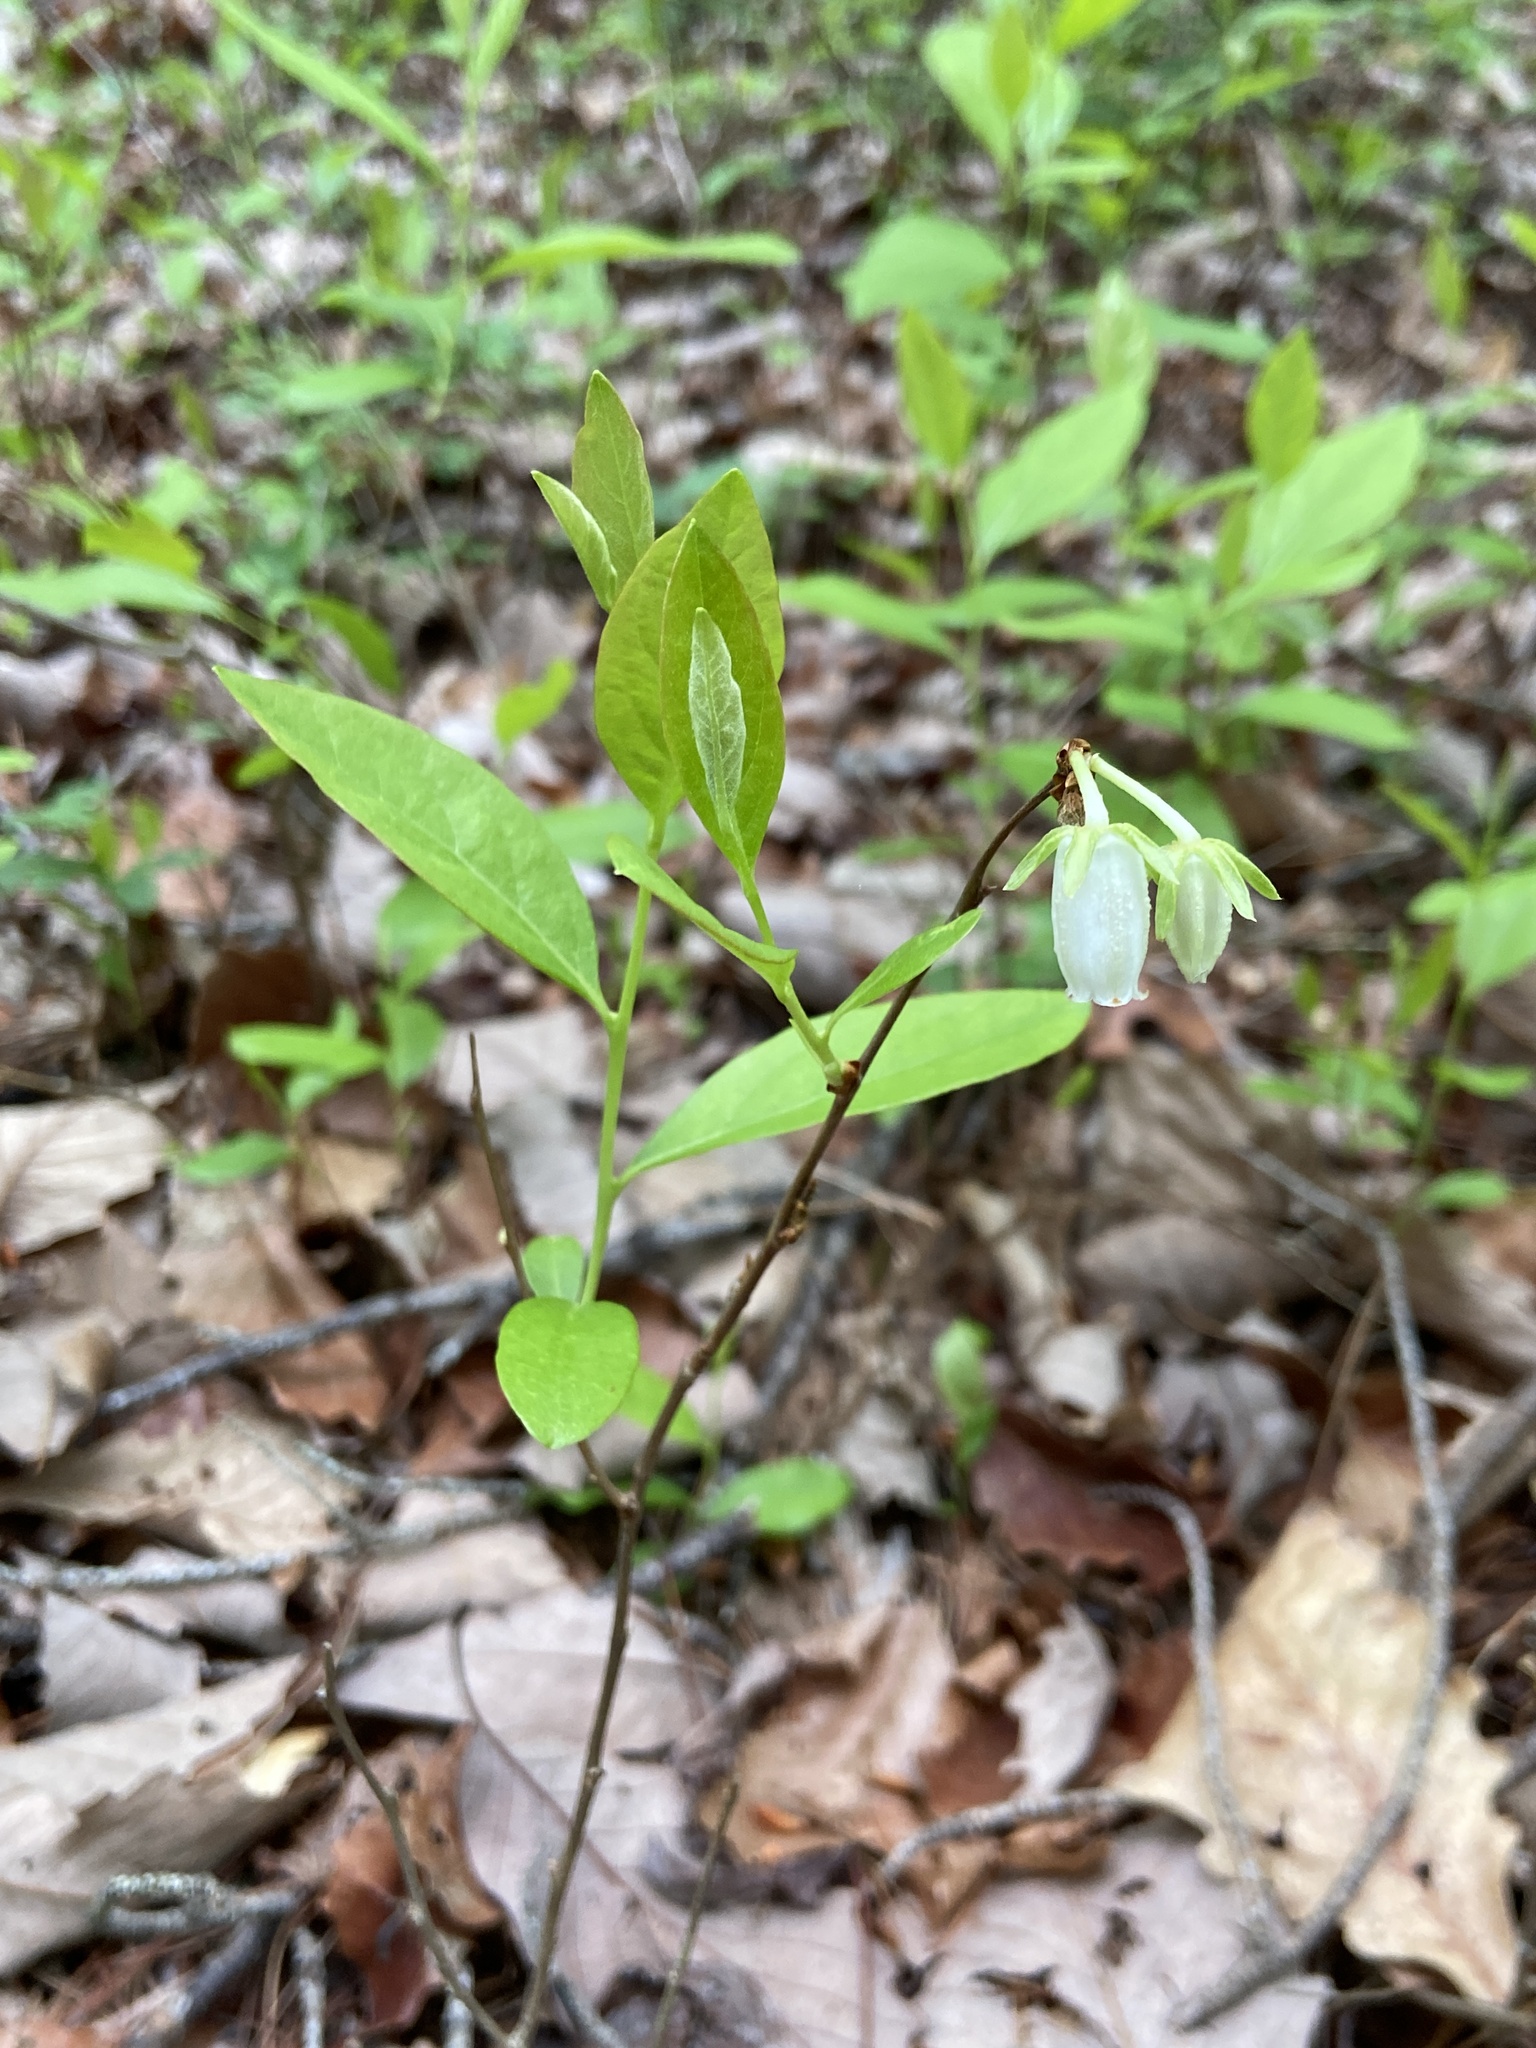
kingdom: Plantae
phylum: Tracheophyta
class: Magnoliopsida
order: Ericales
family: Ericaceae
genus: Lyonia
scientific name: Lyonia mariana
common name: Staggerbush
